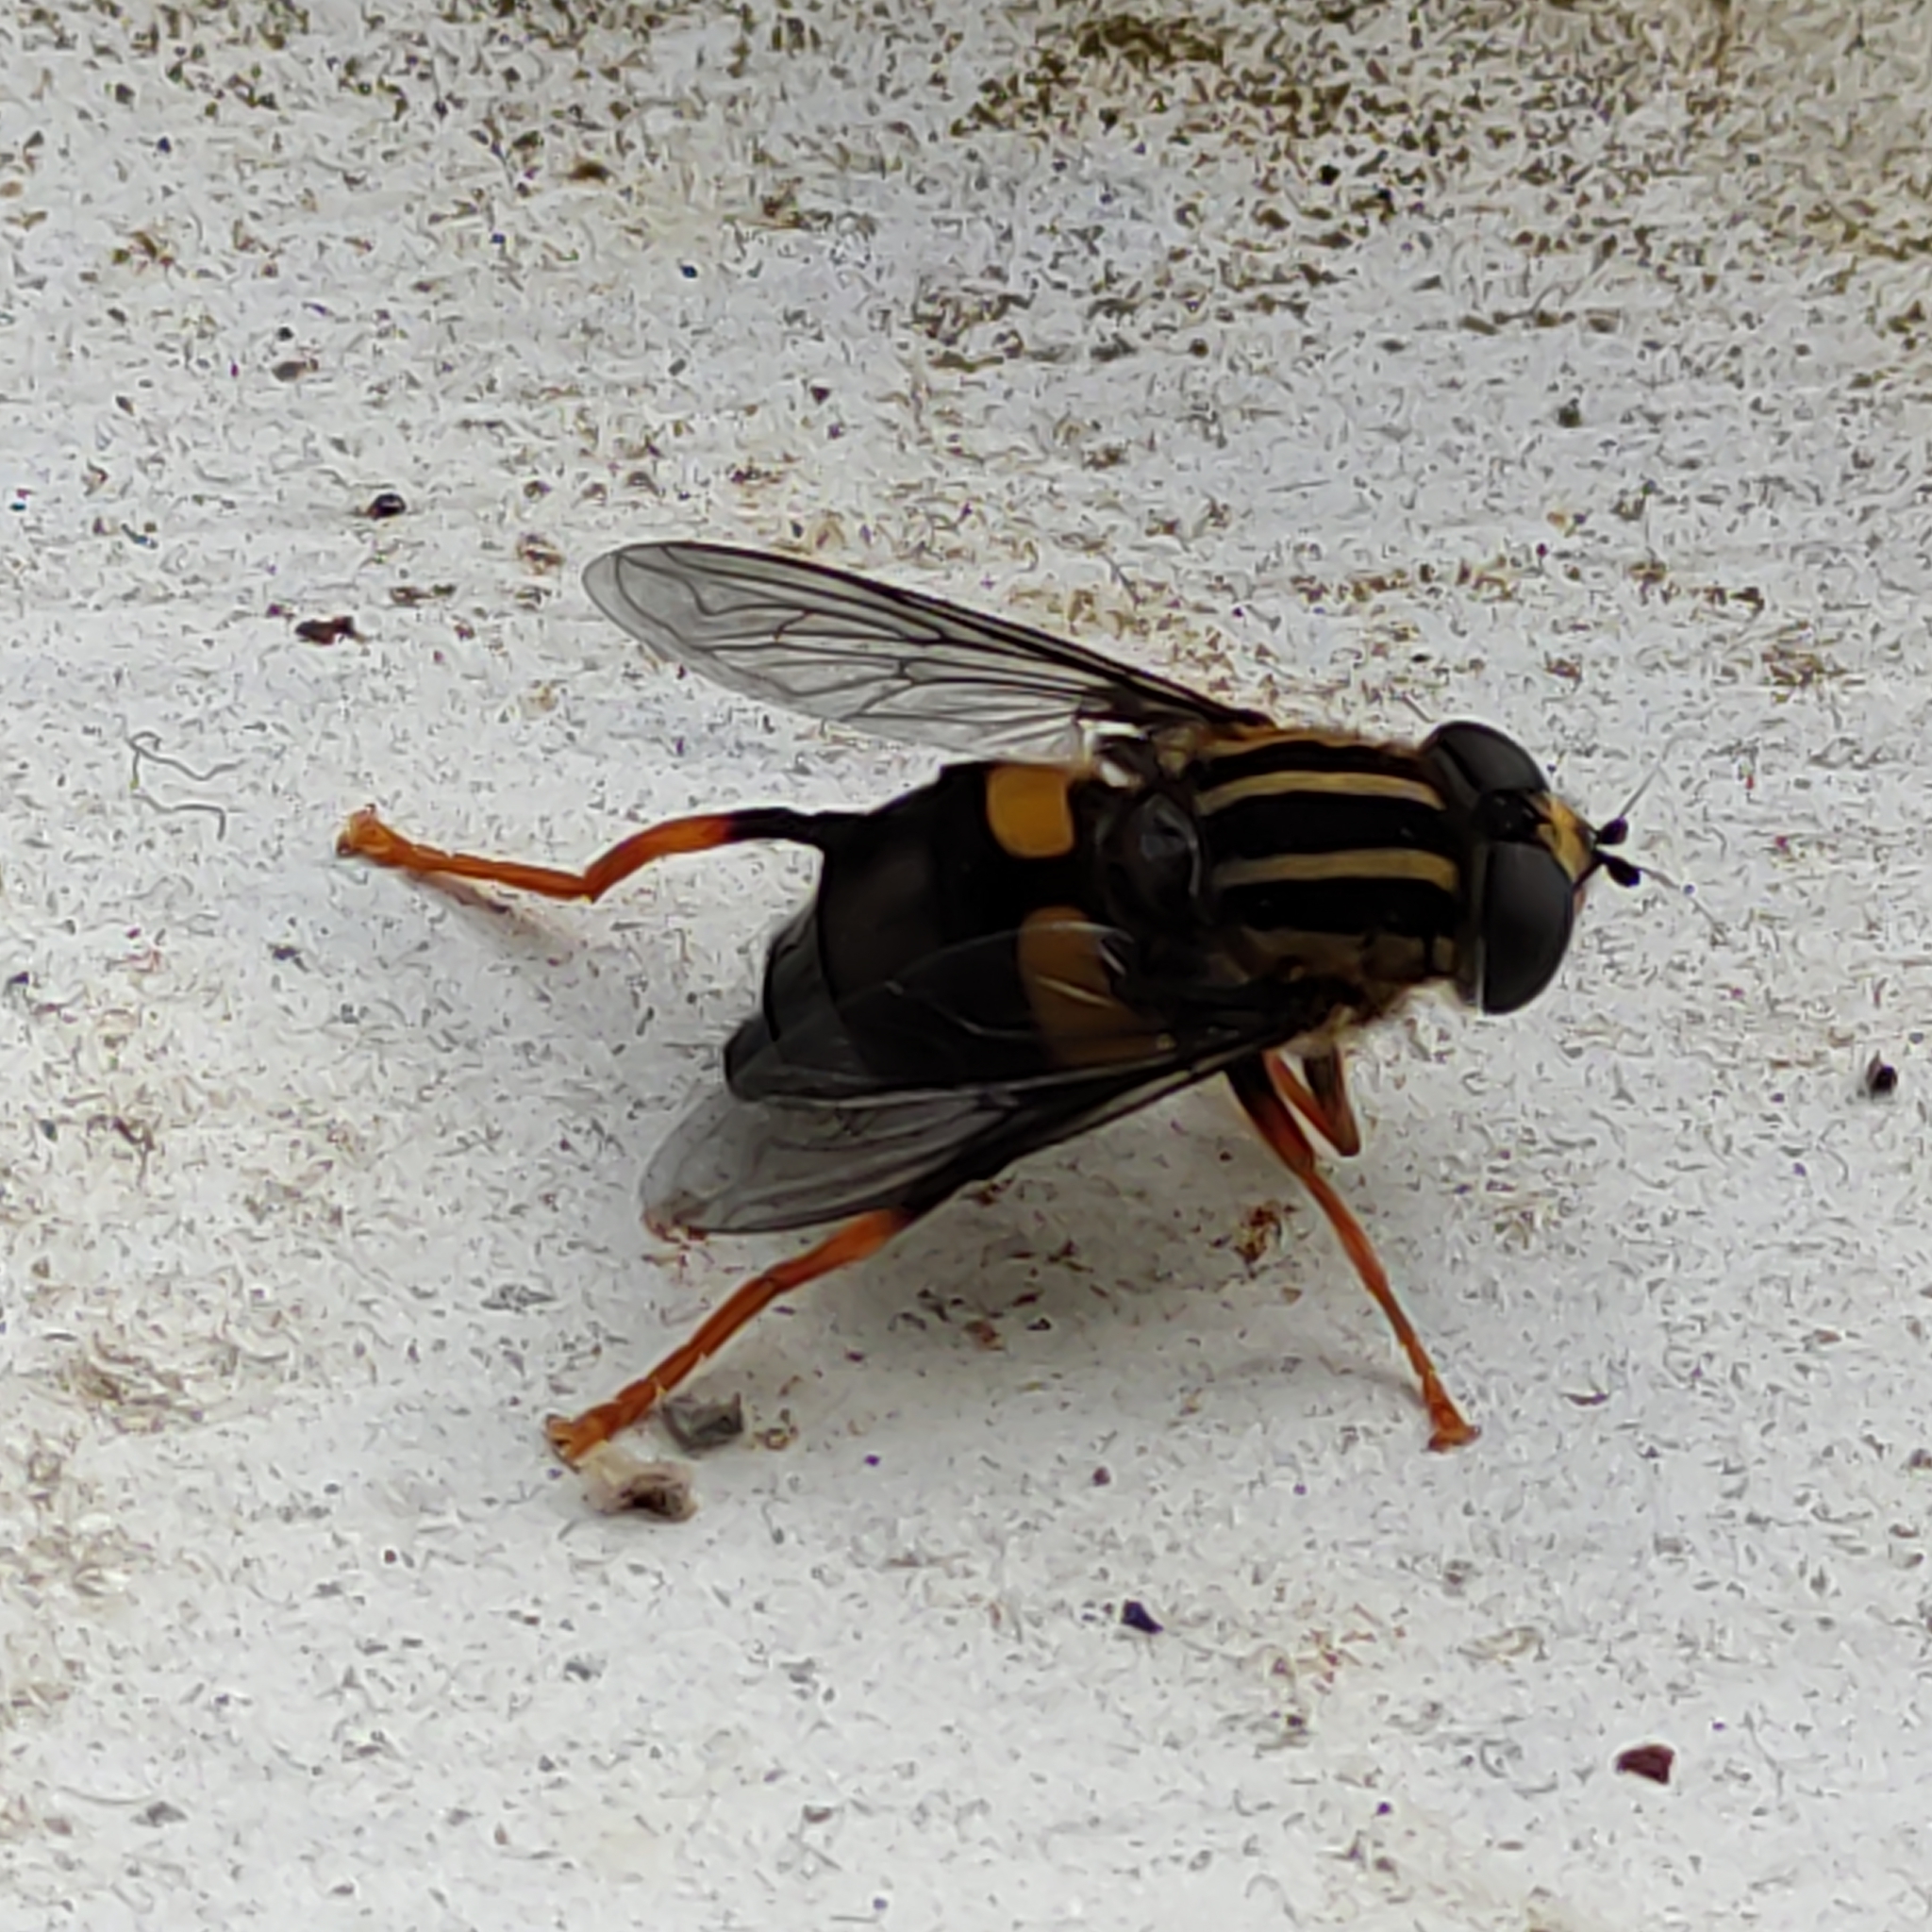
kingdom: Animalia
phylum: Arthropoda
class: Insecta
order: Diptera
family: Syrphidae
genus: Helophilus
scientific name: Helophilus seelandicus
